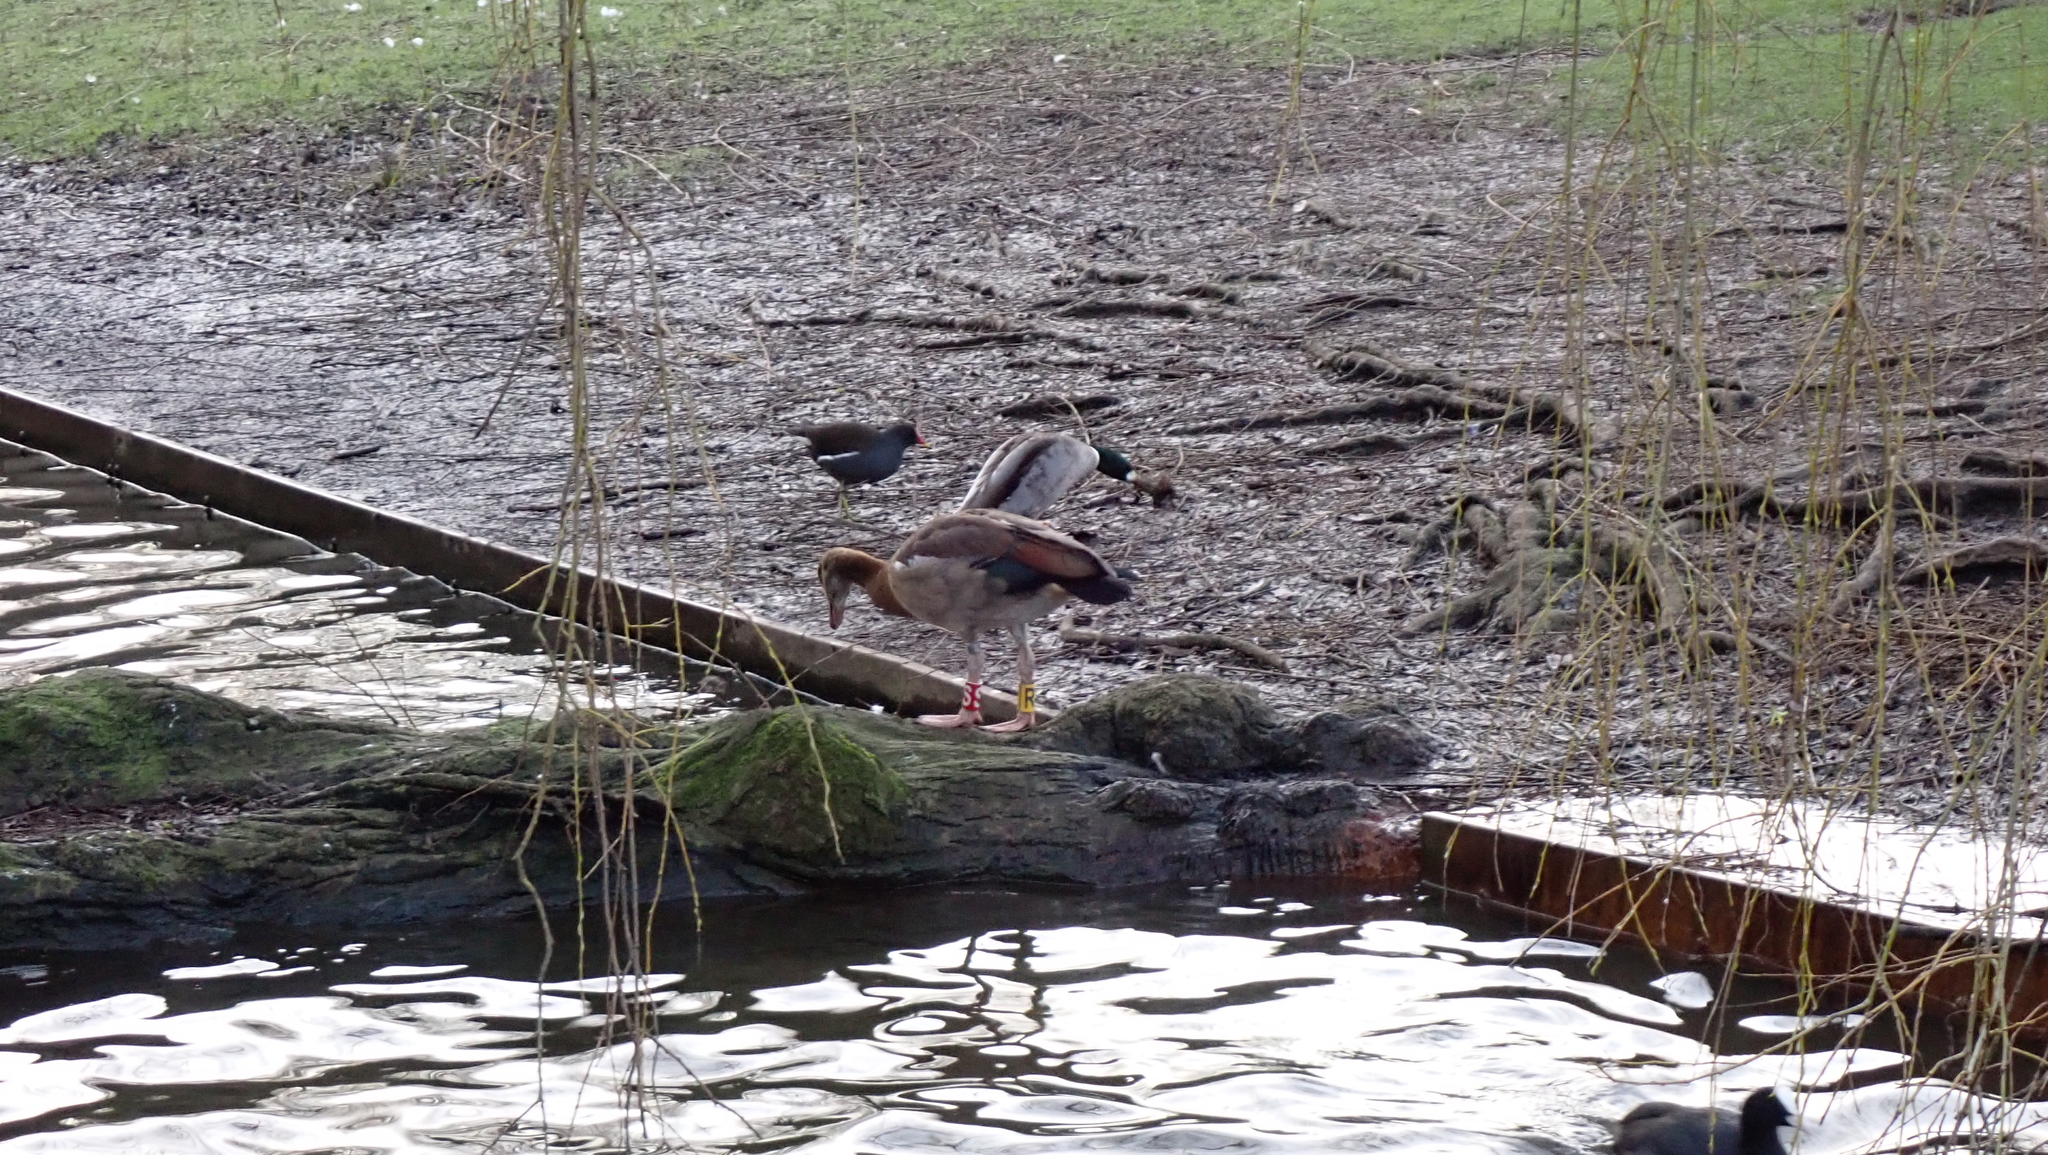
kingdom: Animalia
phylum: Chordata
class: Aves
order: Anseriformes
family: Anatidae
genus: Alopochen
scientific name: Alopochen aegyptiaca
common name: Egyptian goose
